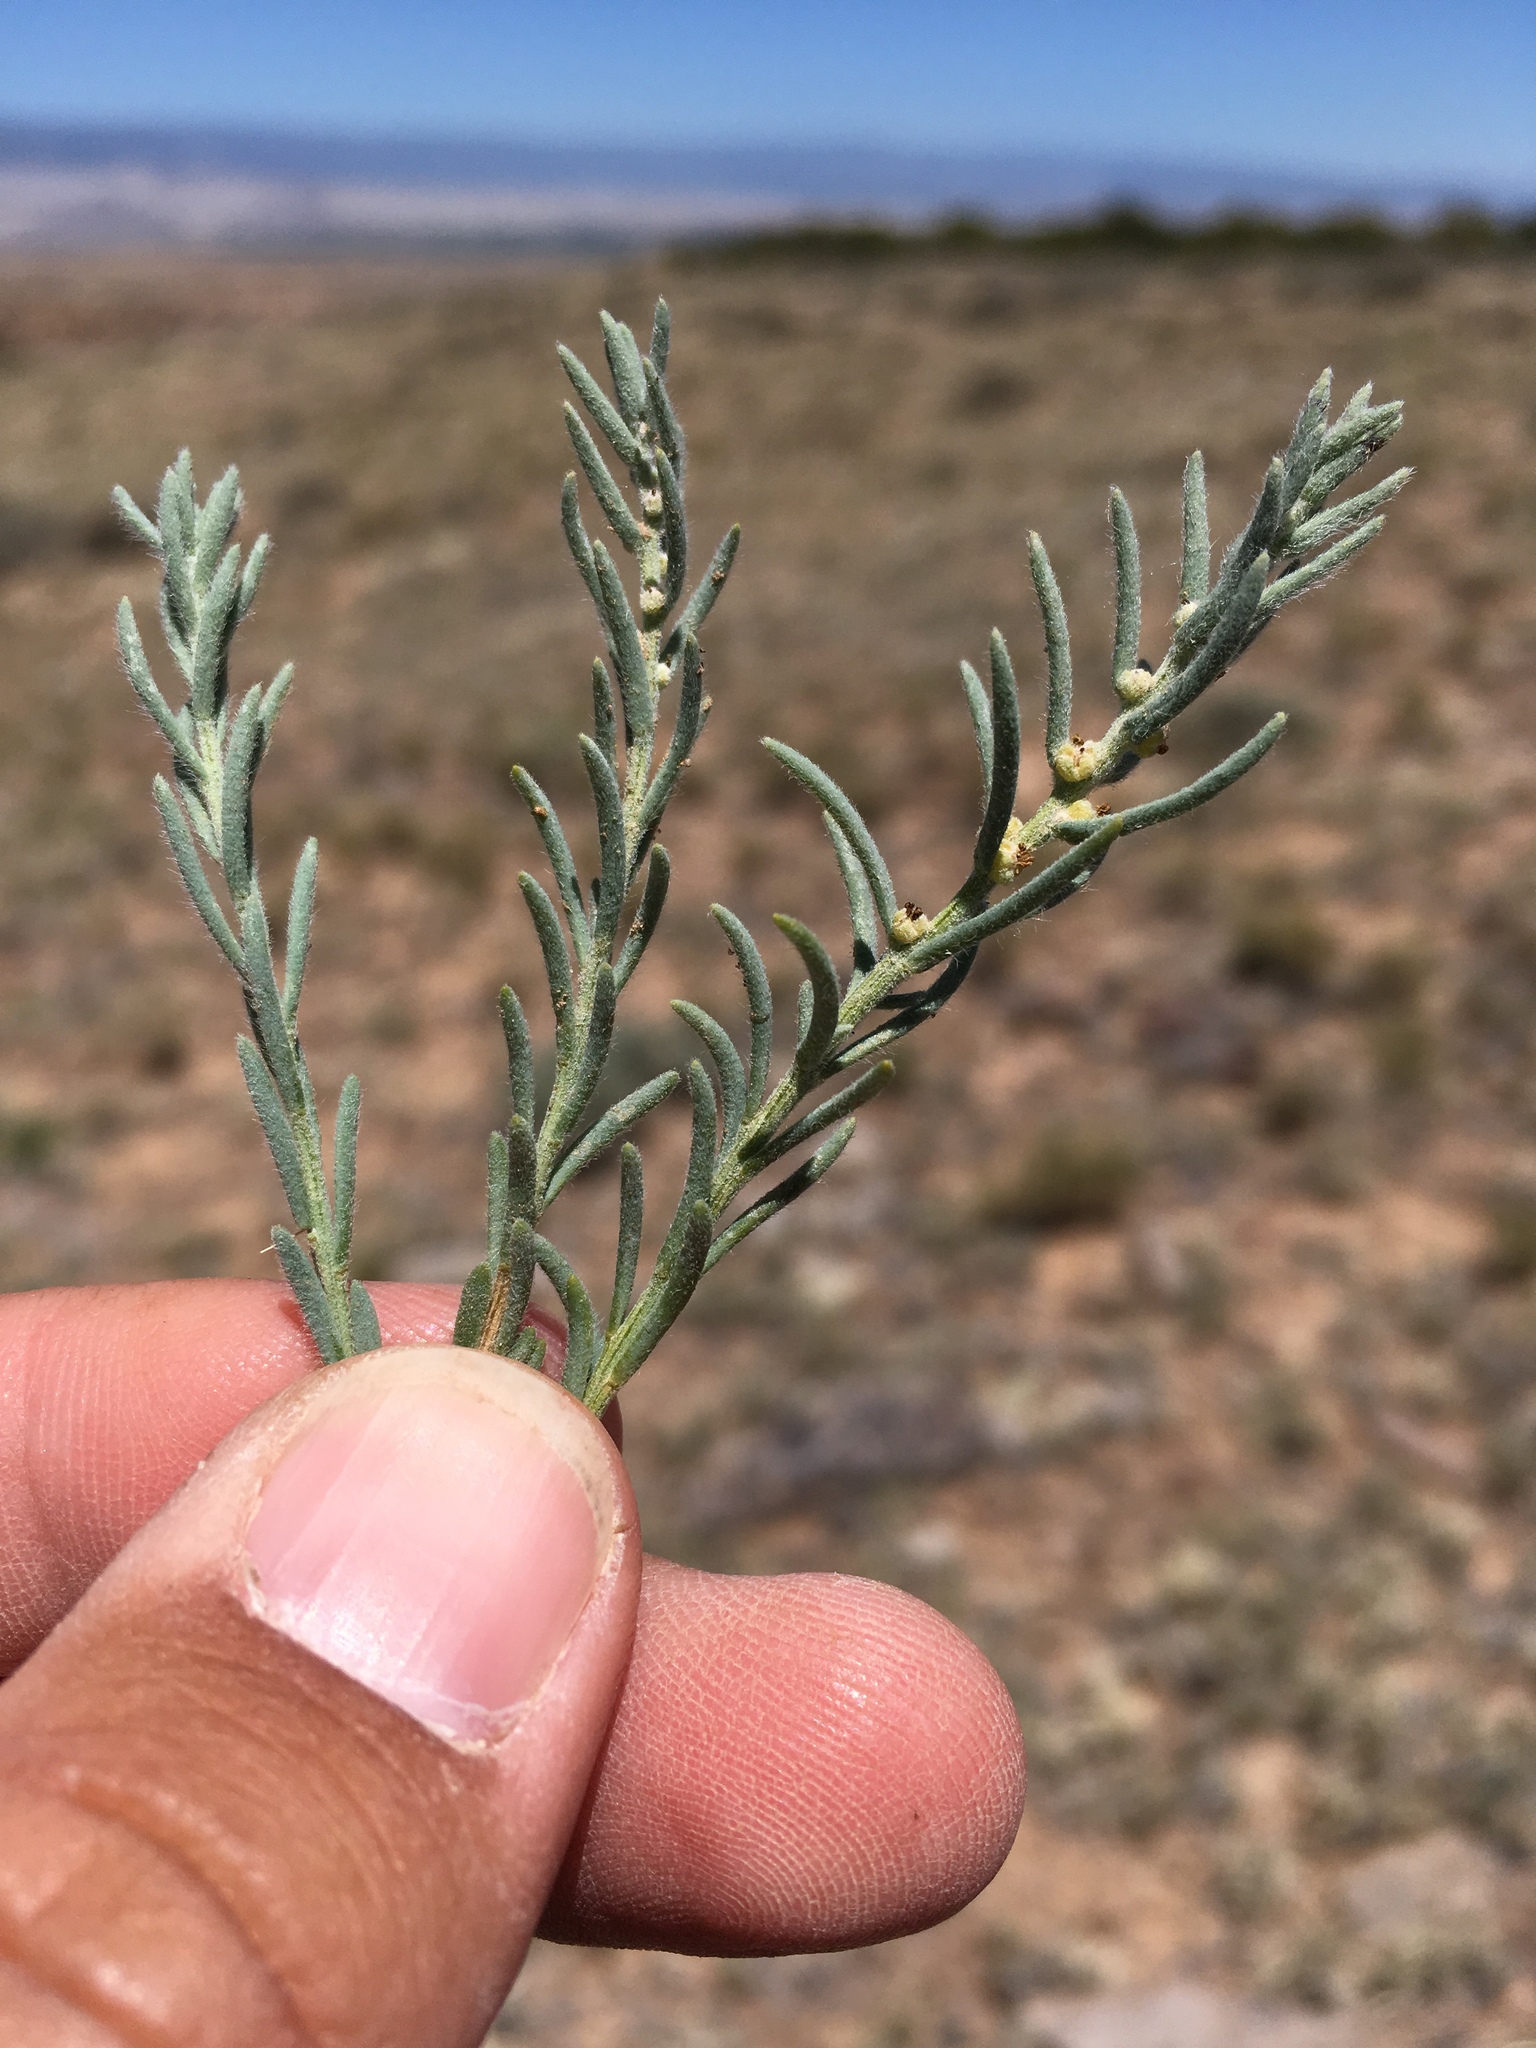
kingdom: Plantae
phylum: Tracheophyta
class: Magnoliopsida
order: Caryophyllales
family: Amaranthaceae
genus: Neokochia
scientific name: Neokochia americana
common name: Perennial summer-cypress
